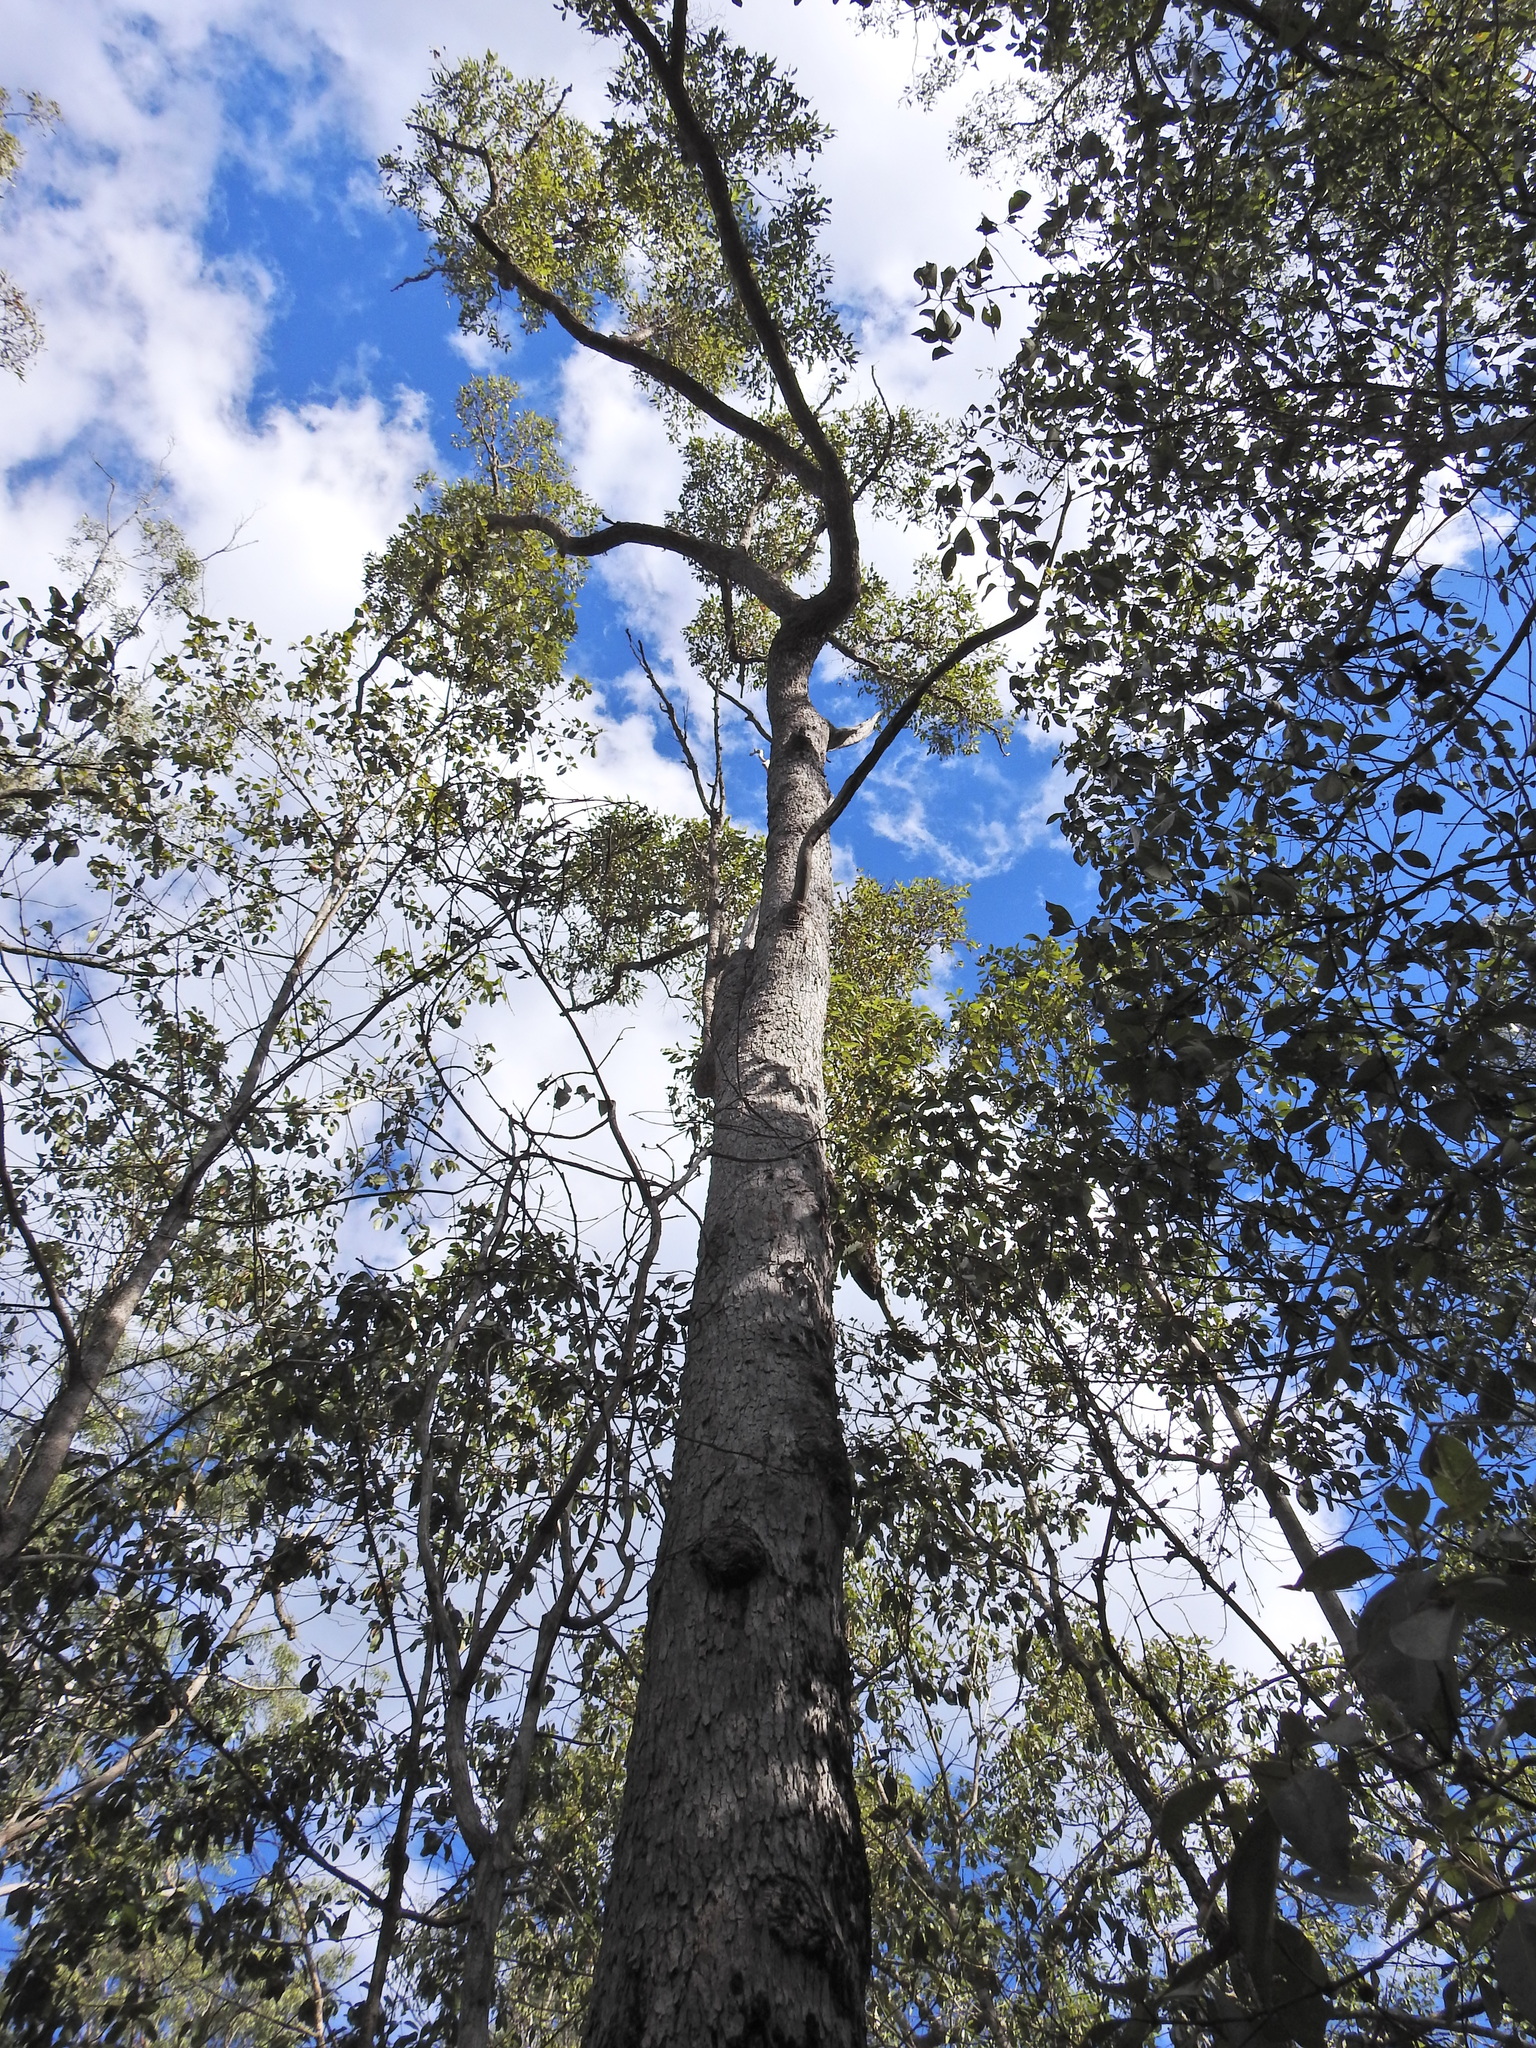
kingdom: Plantae
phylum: Tracheophyta
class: Magnoliopsida
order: Myrtales
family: Myrtaceae
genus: Corymbia
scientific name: Corymbia intermedia
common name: Pink-bloodwood
